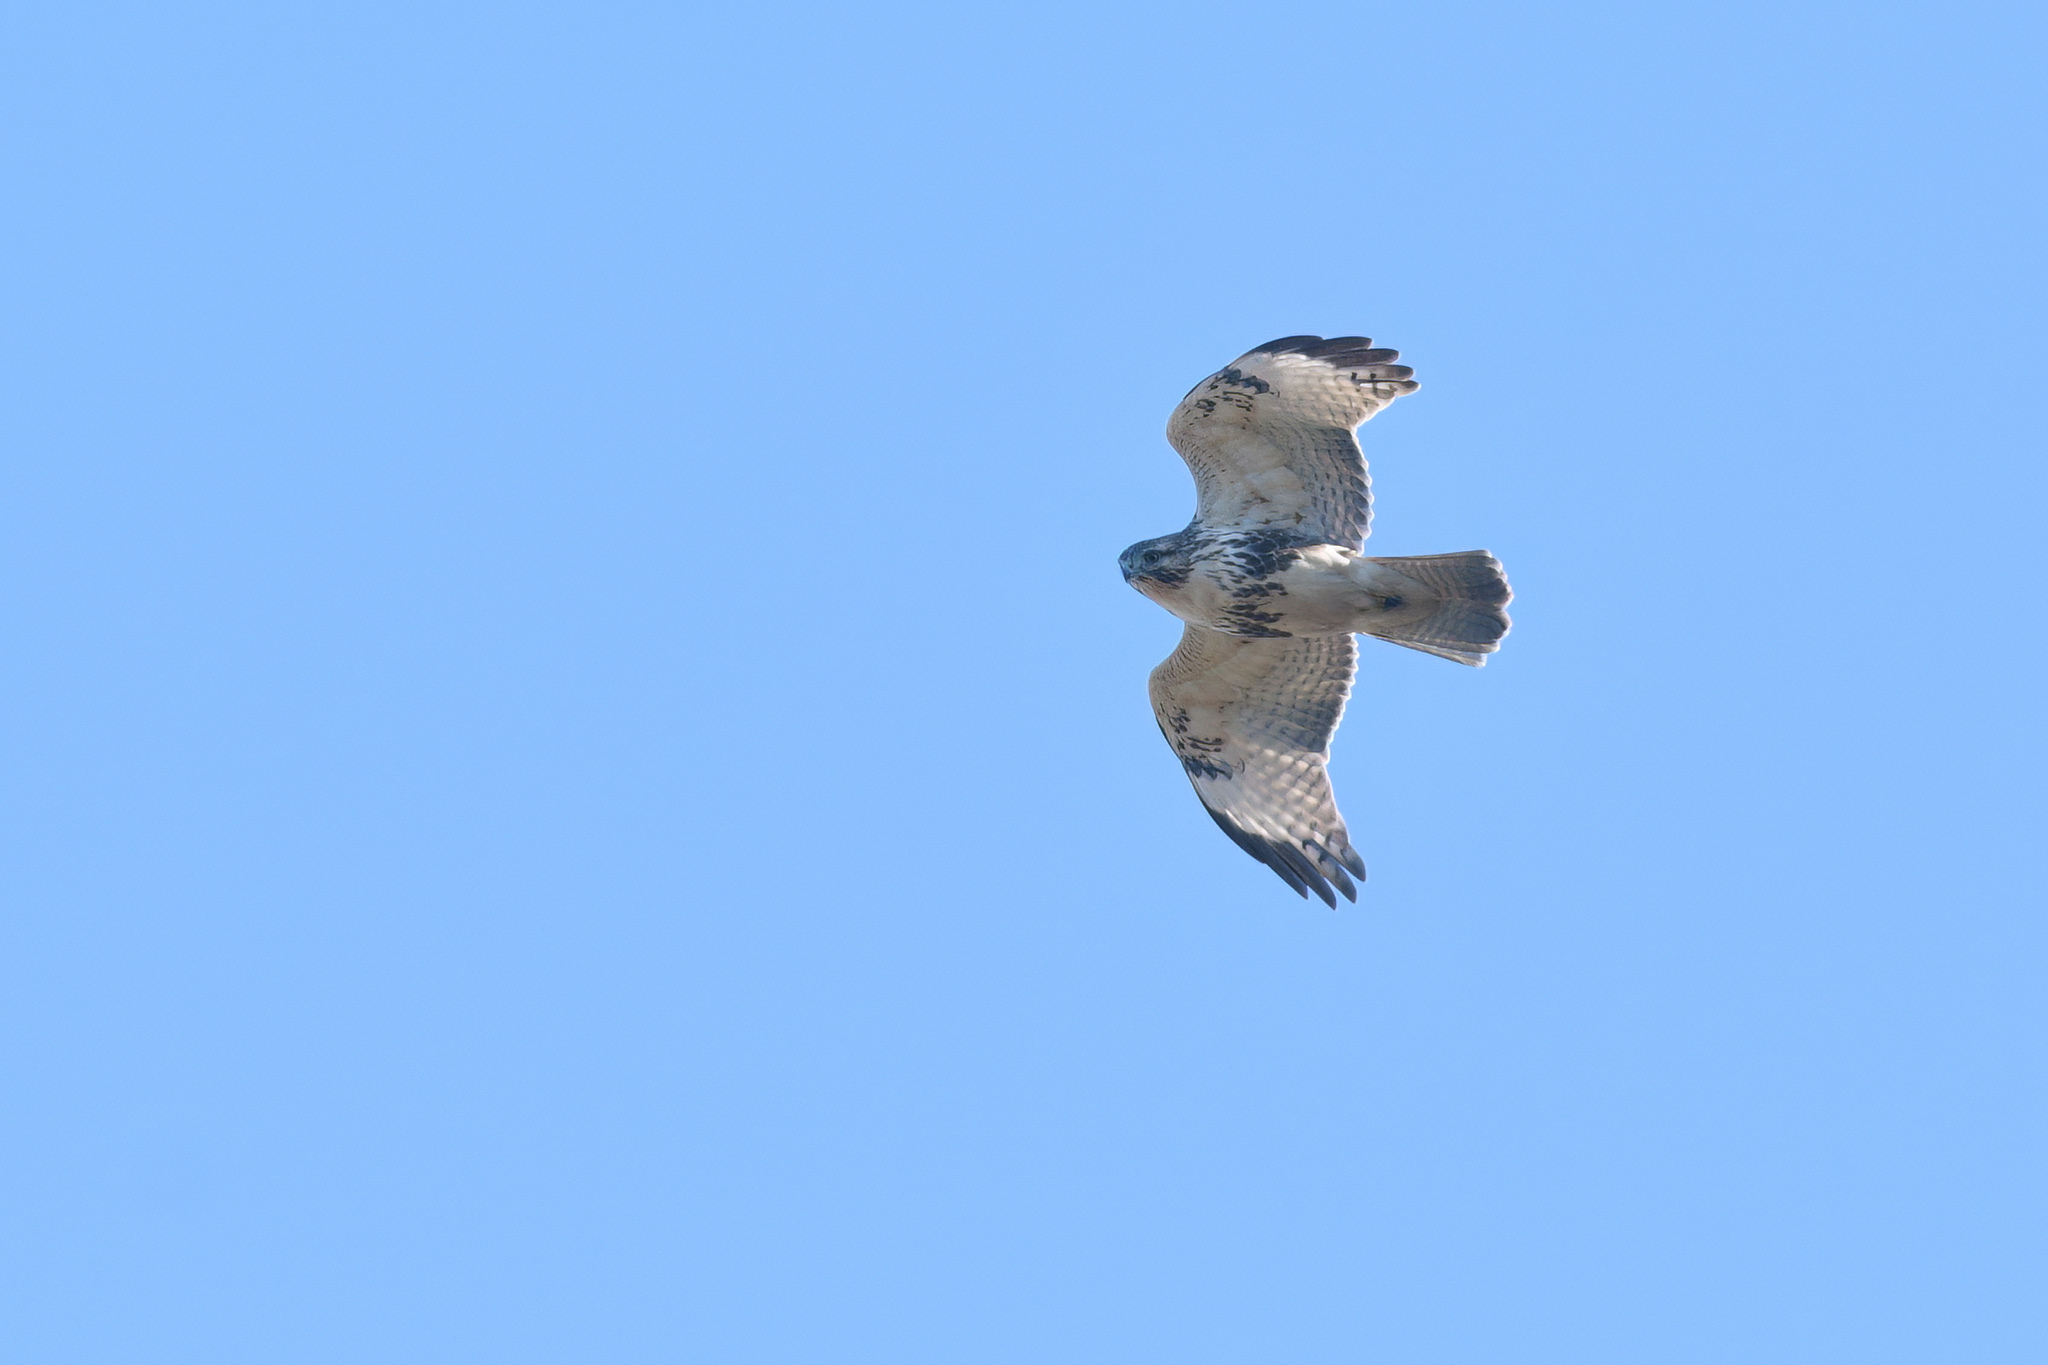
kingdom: Animalia
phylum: Chordata
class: Aves
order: Accipitriformes
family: Accipitridae
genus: Buteo
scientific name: Buteo japonicus
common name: Eastern buzzard
